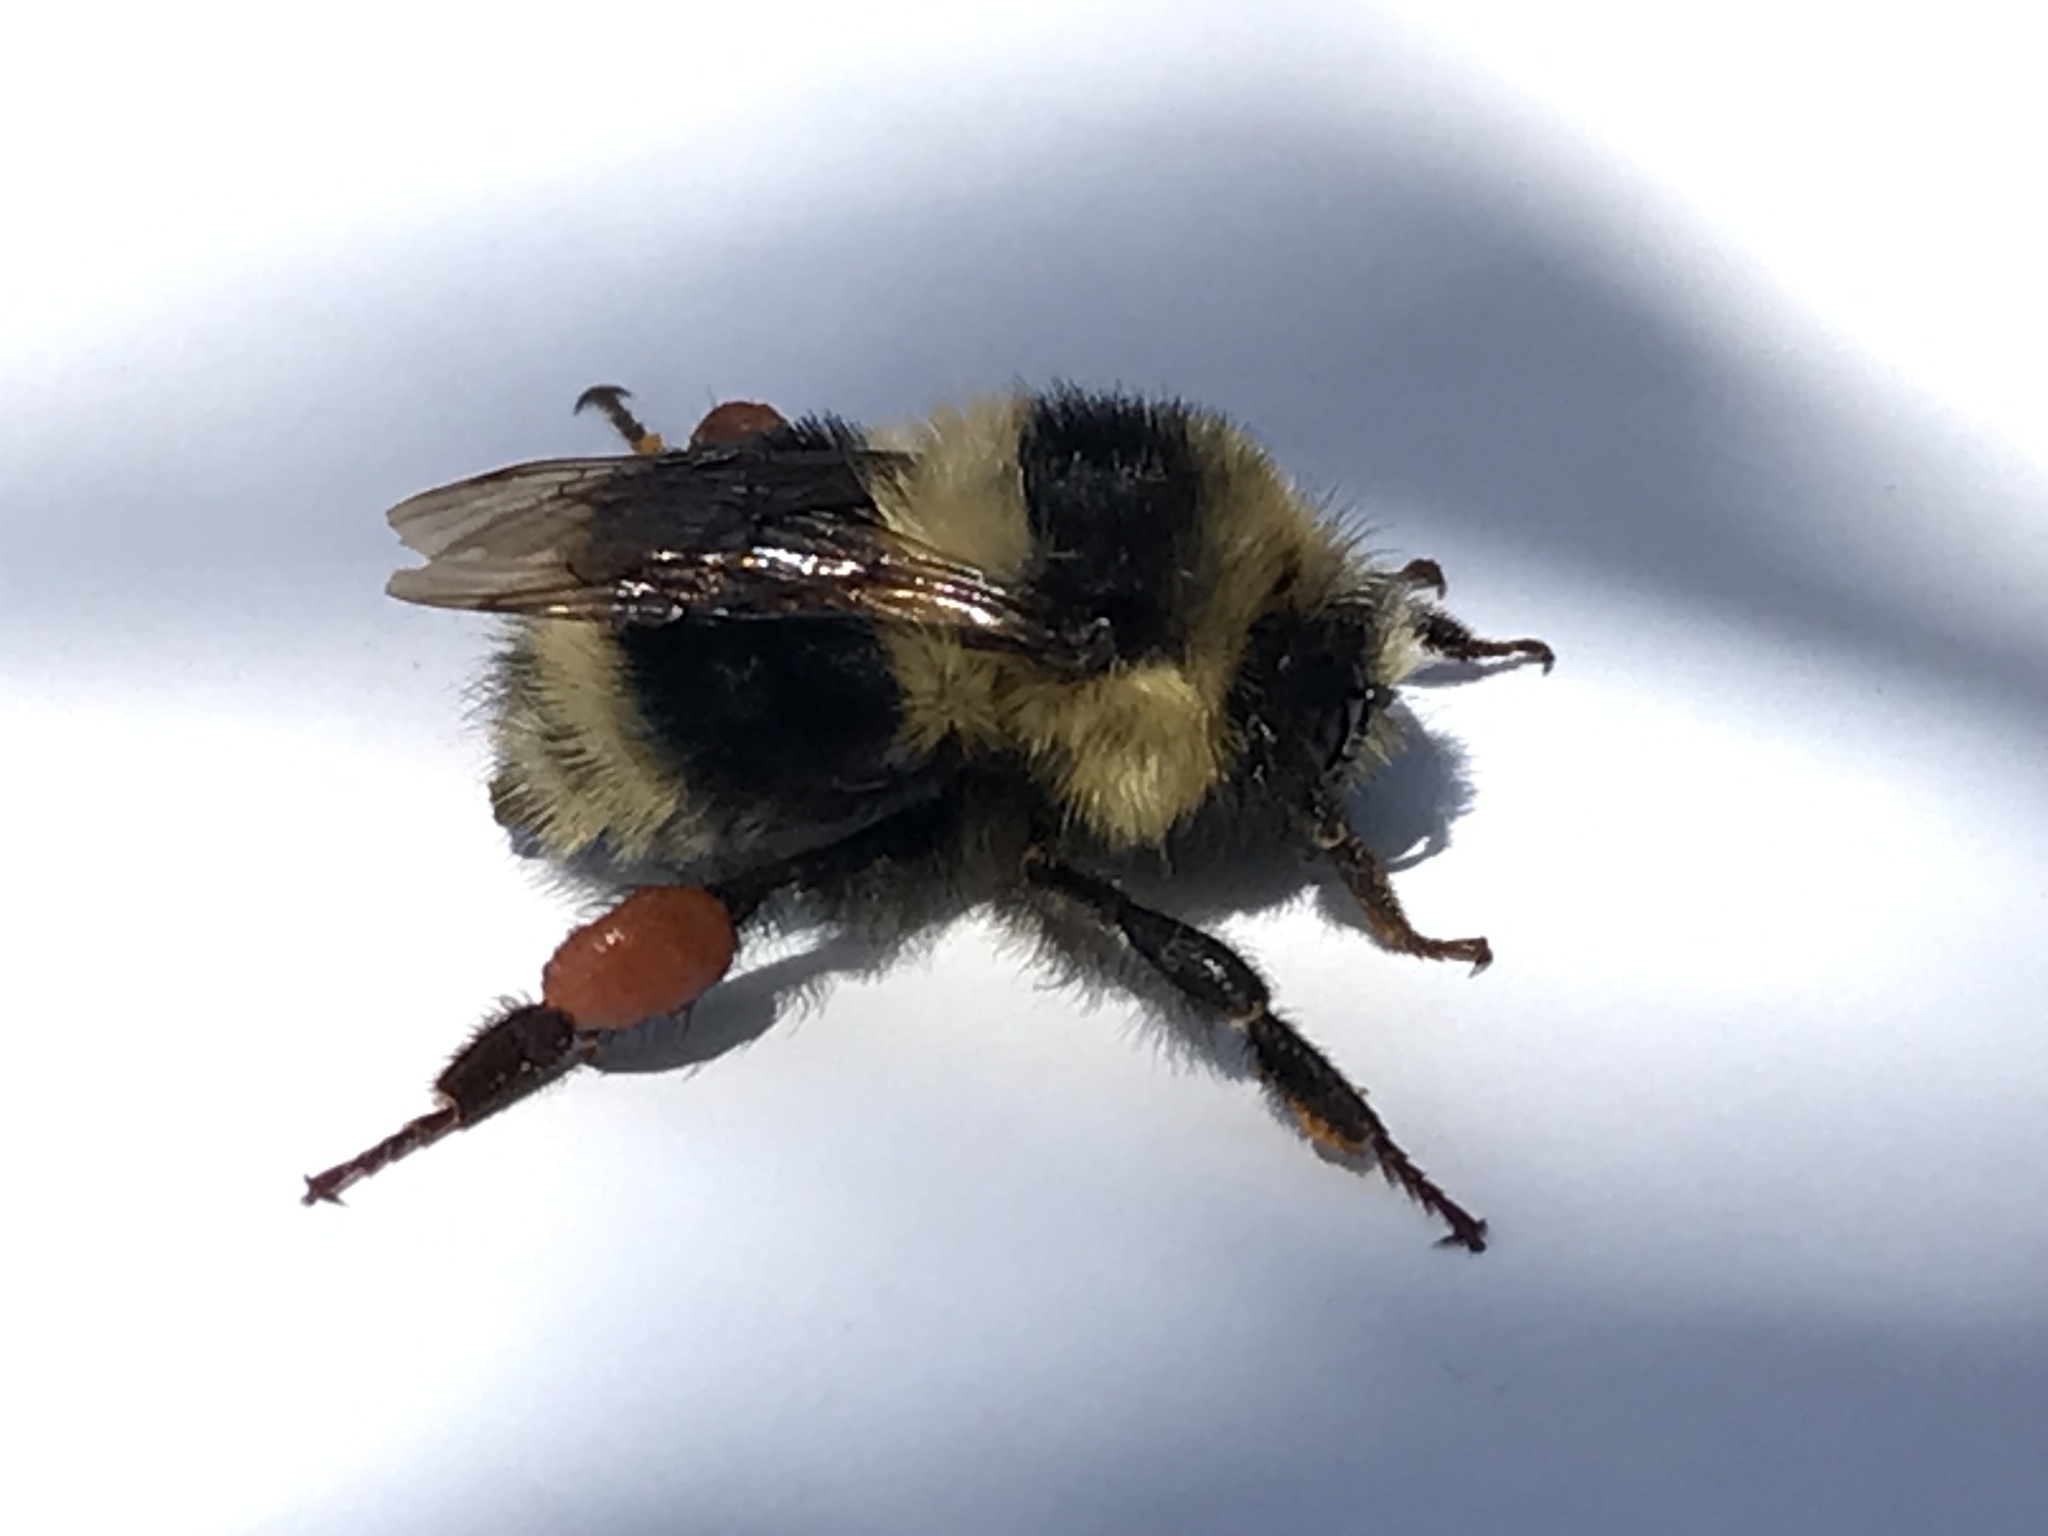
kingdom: Animalia
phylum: Arthropoda
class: Insecta
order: Hymenoptera
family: Apidae
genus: Bombus
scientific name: Bombus melanopygus
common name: Black tail bumble bee
